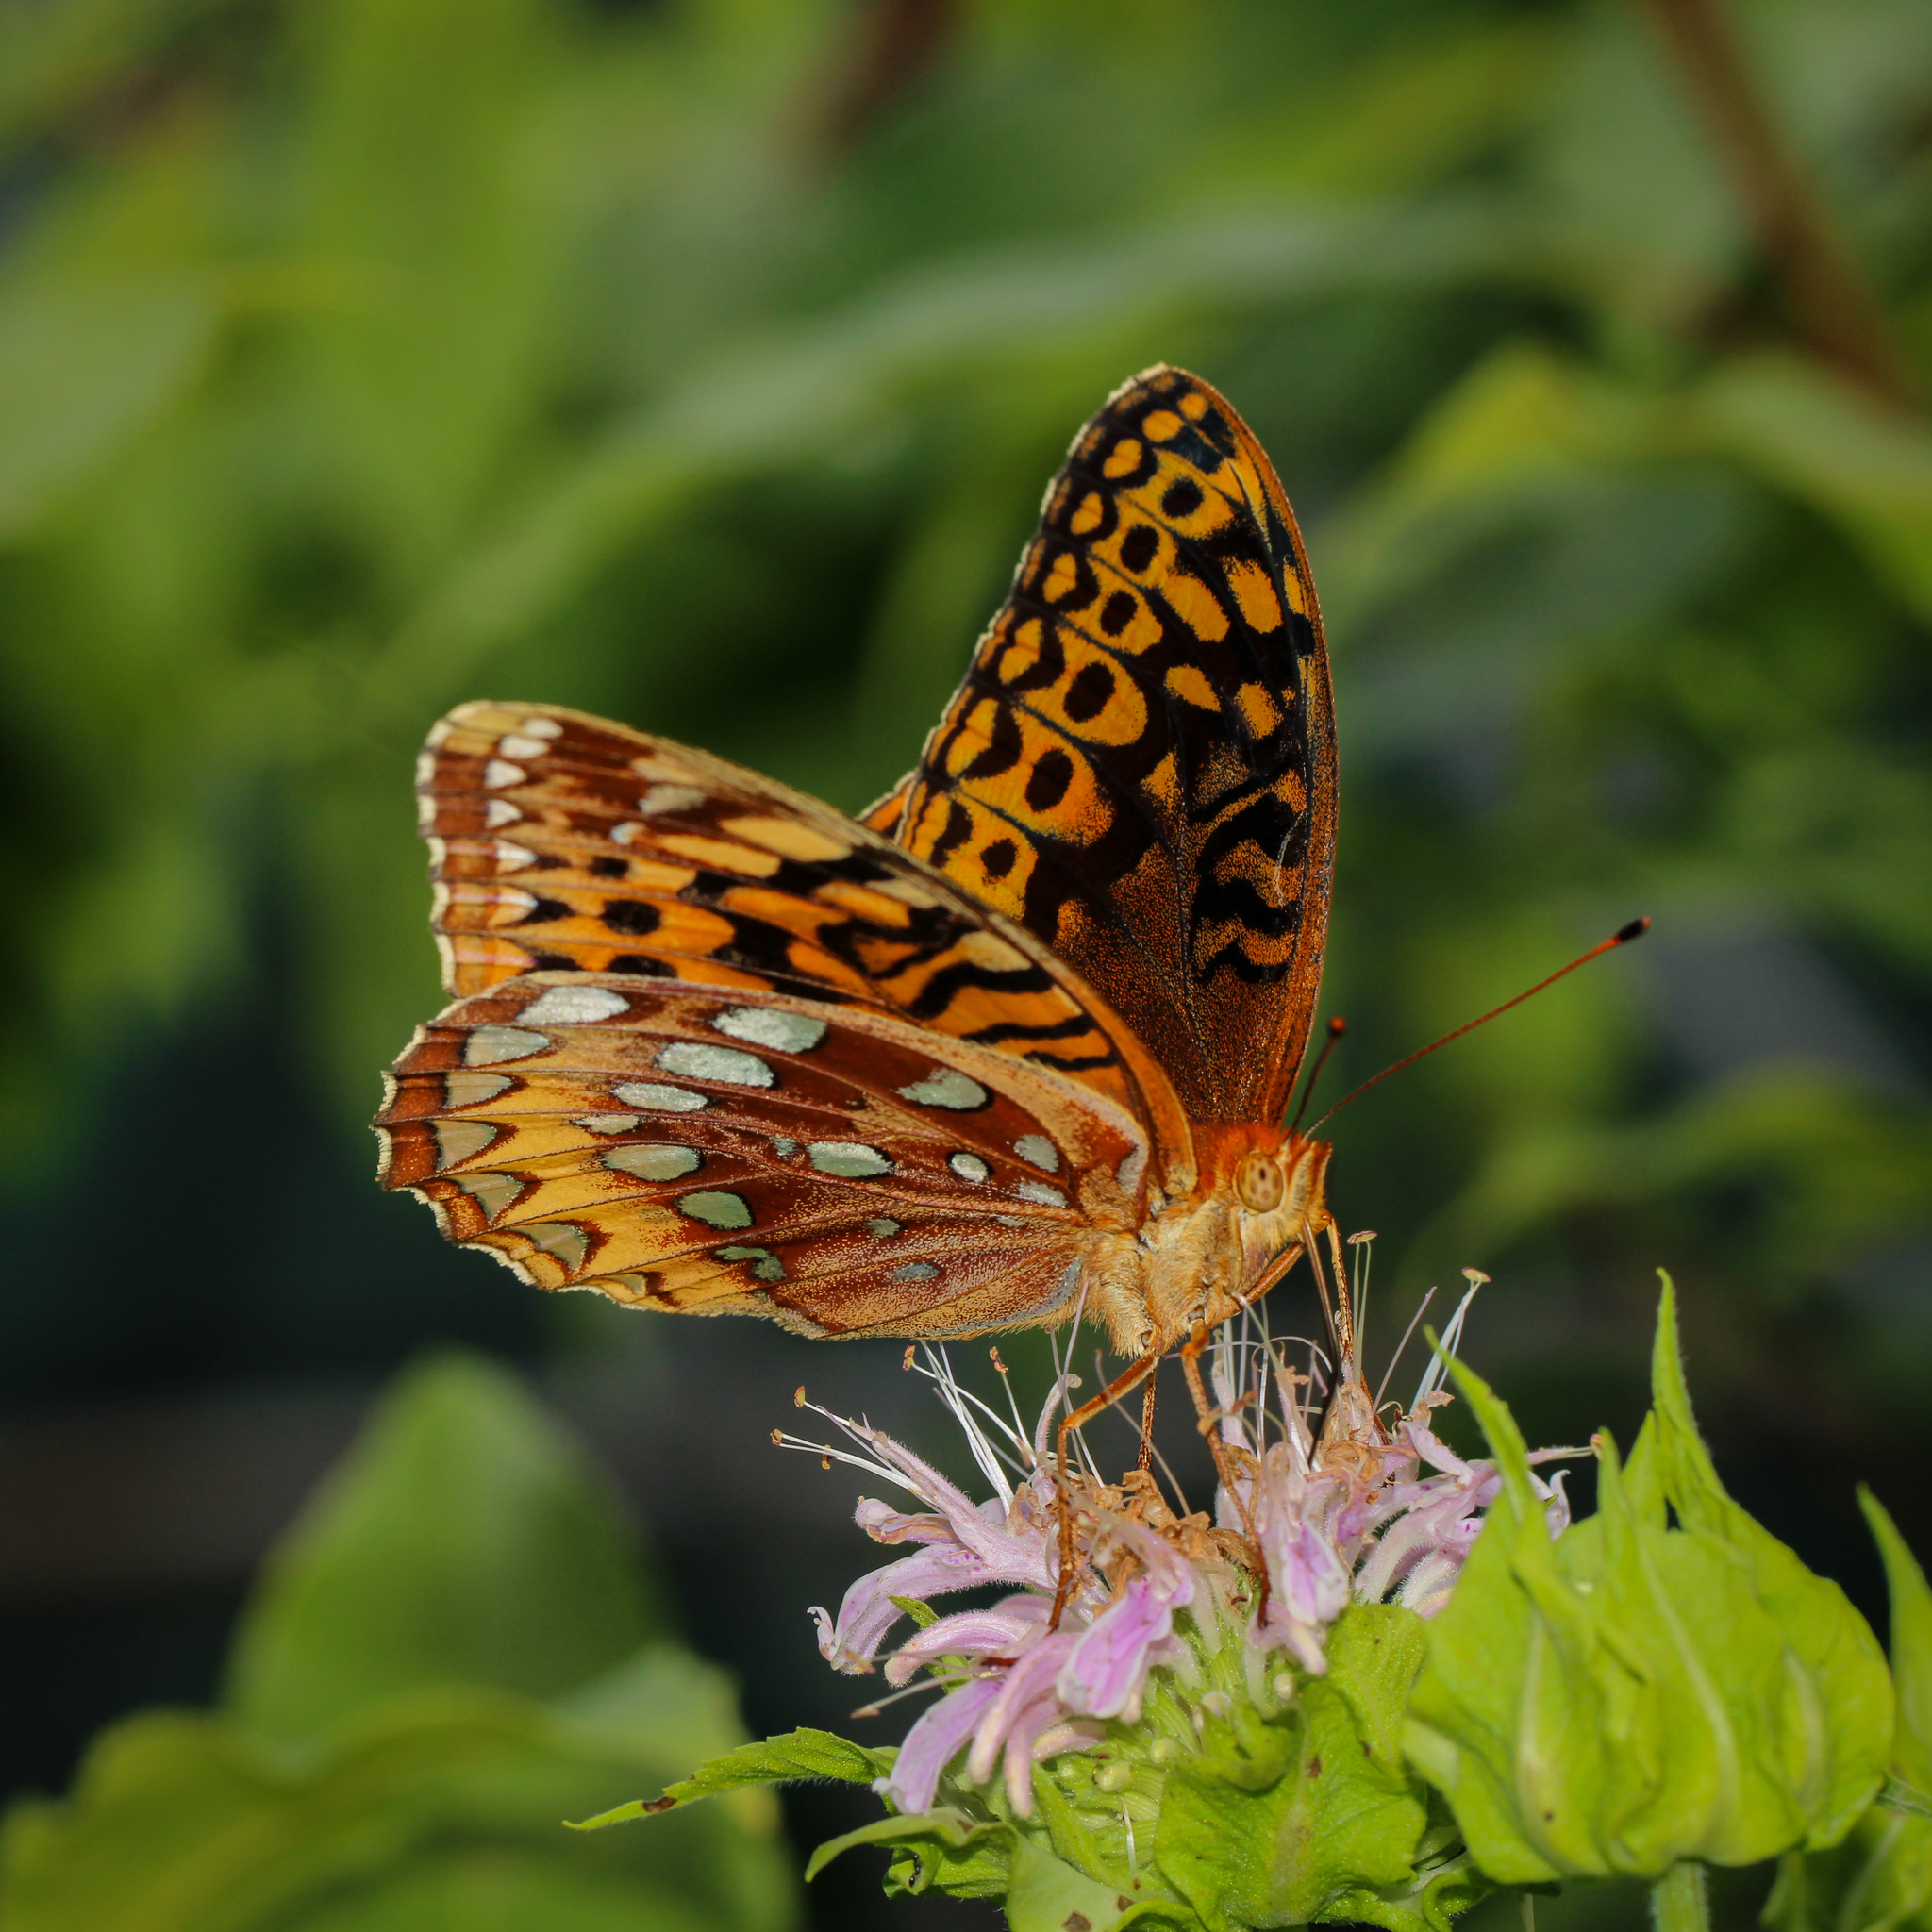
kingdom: Animalia
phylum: Arthropoda
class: Insecta
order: Lepidoptera
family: Nymphalidae
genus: Speyeria
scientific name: Speyeria cybele
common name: Great spangled fritillary
